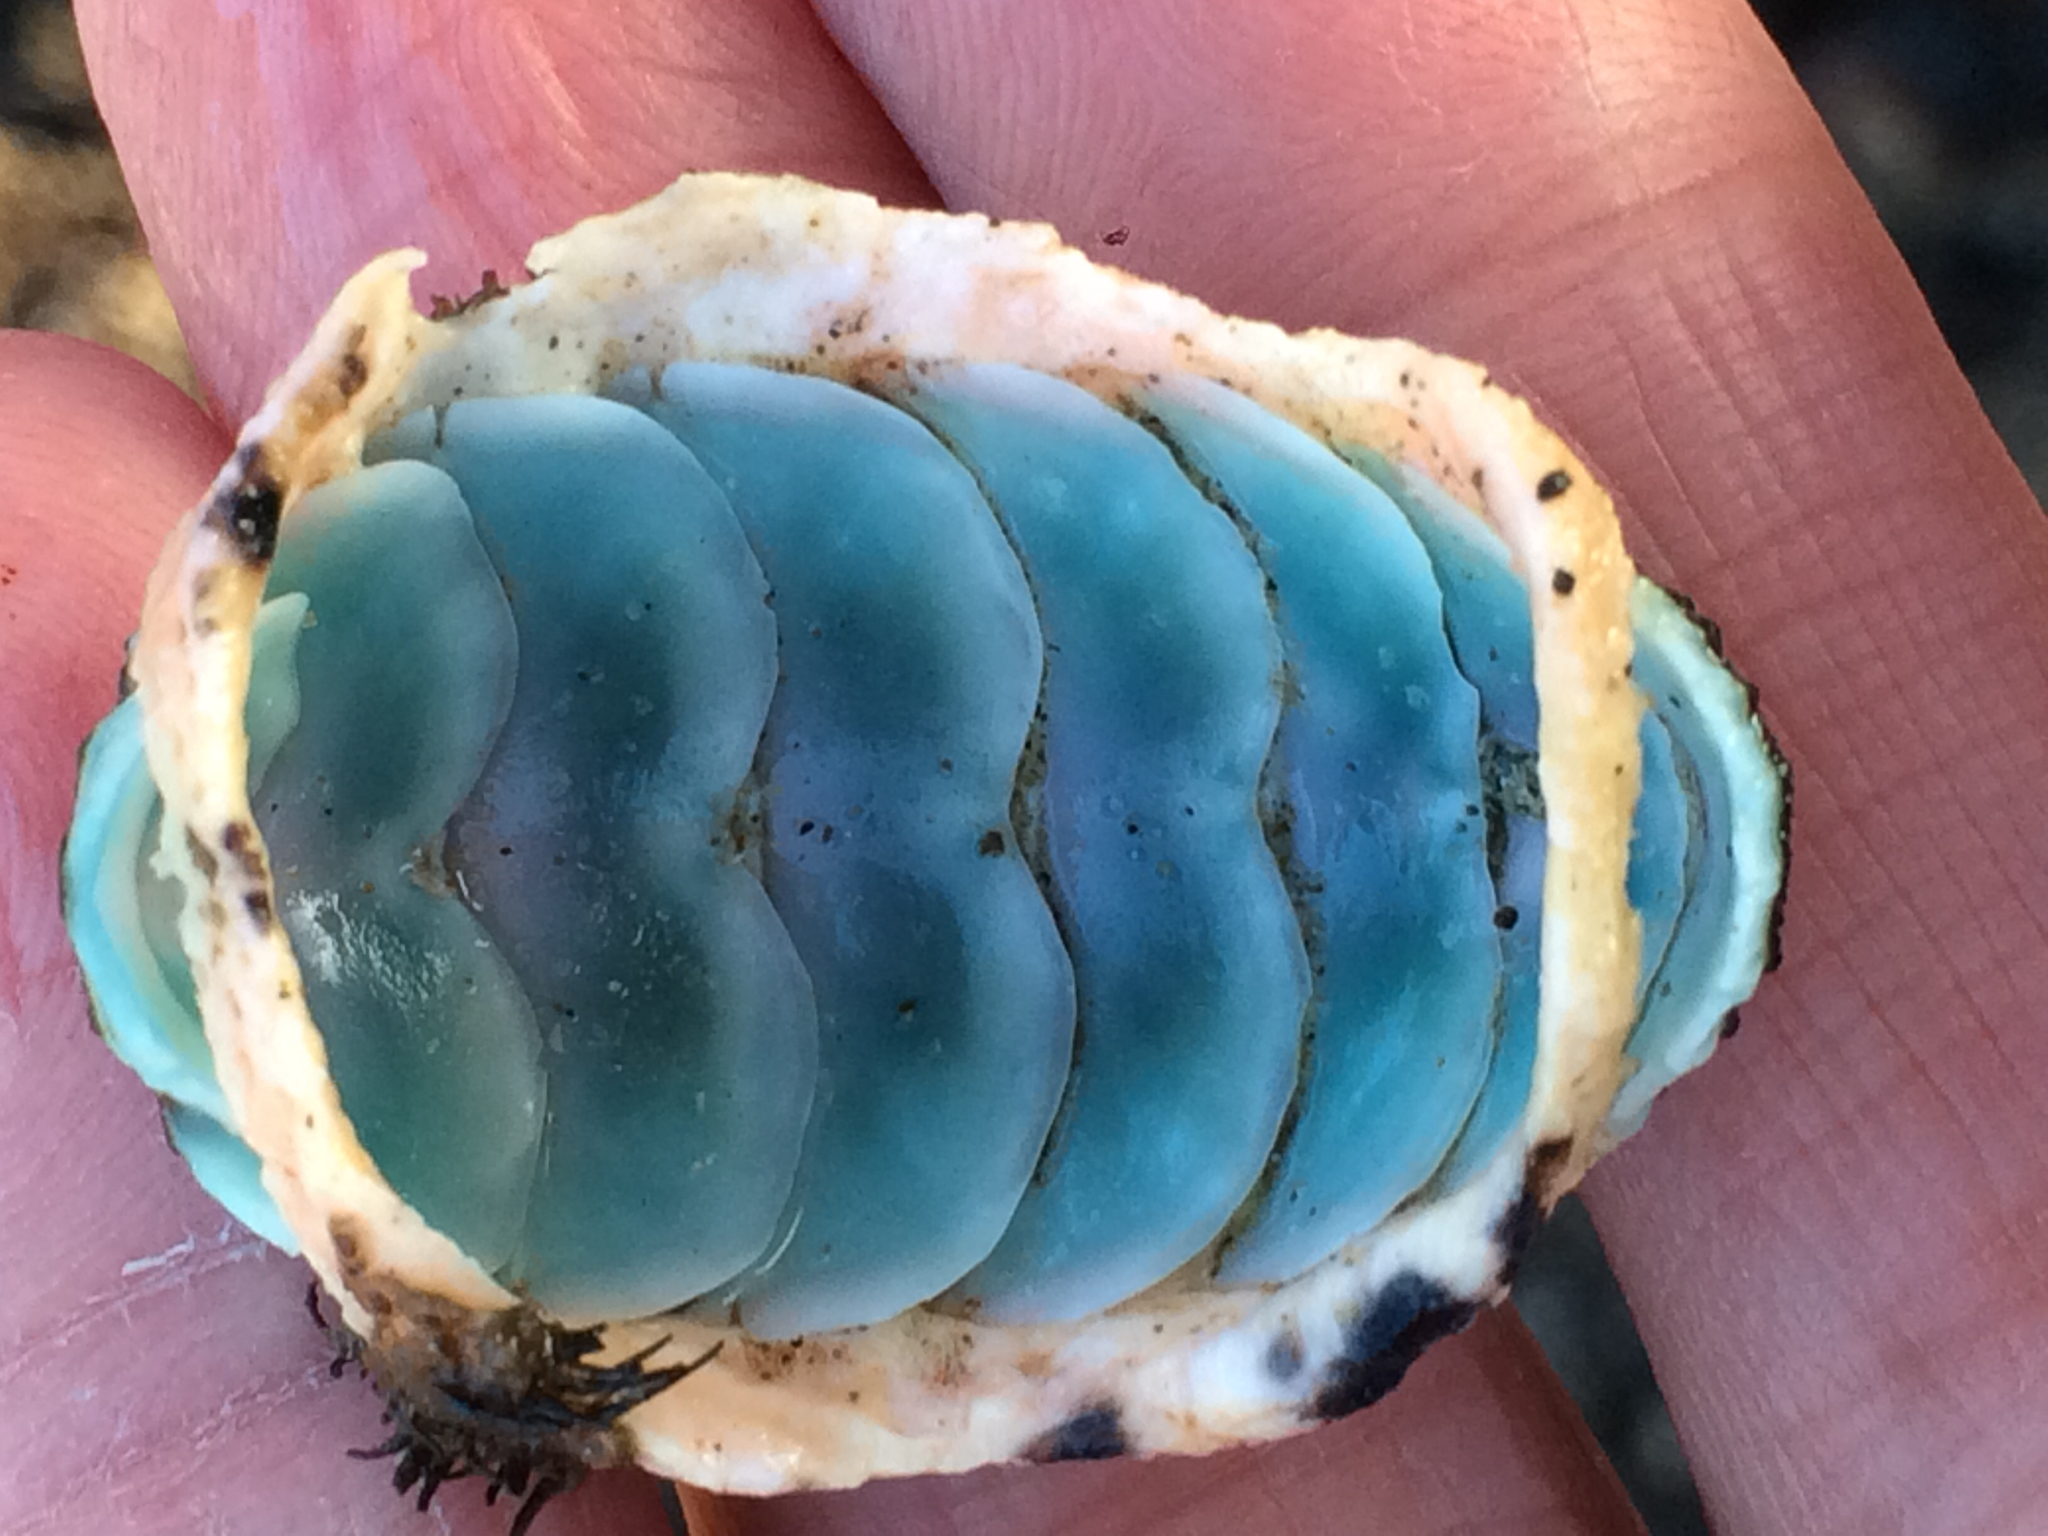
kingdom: Animalia
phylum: Mollusca
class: Polyplacophora
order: Chitonida
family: Mopaliidae
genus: Mopalia
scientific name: Mopalia muscosa
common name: Mossy chiton
